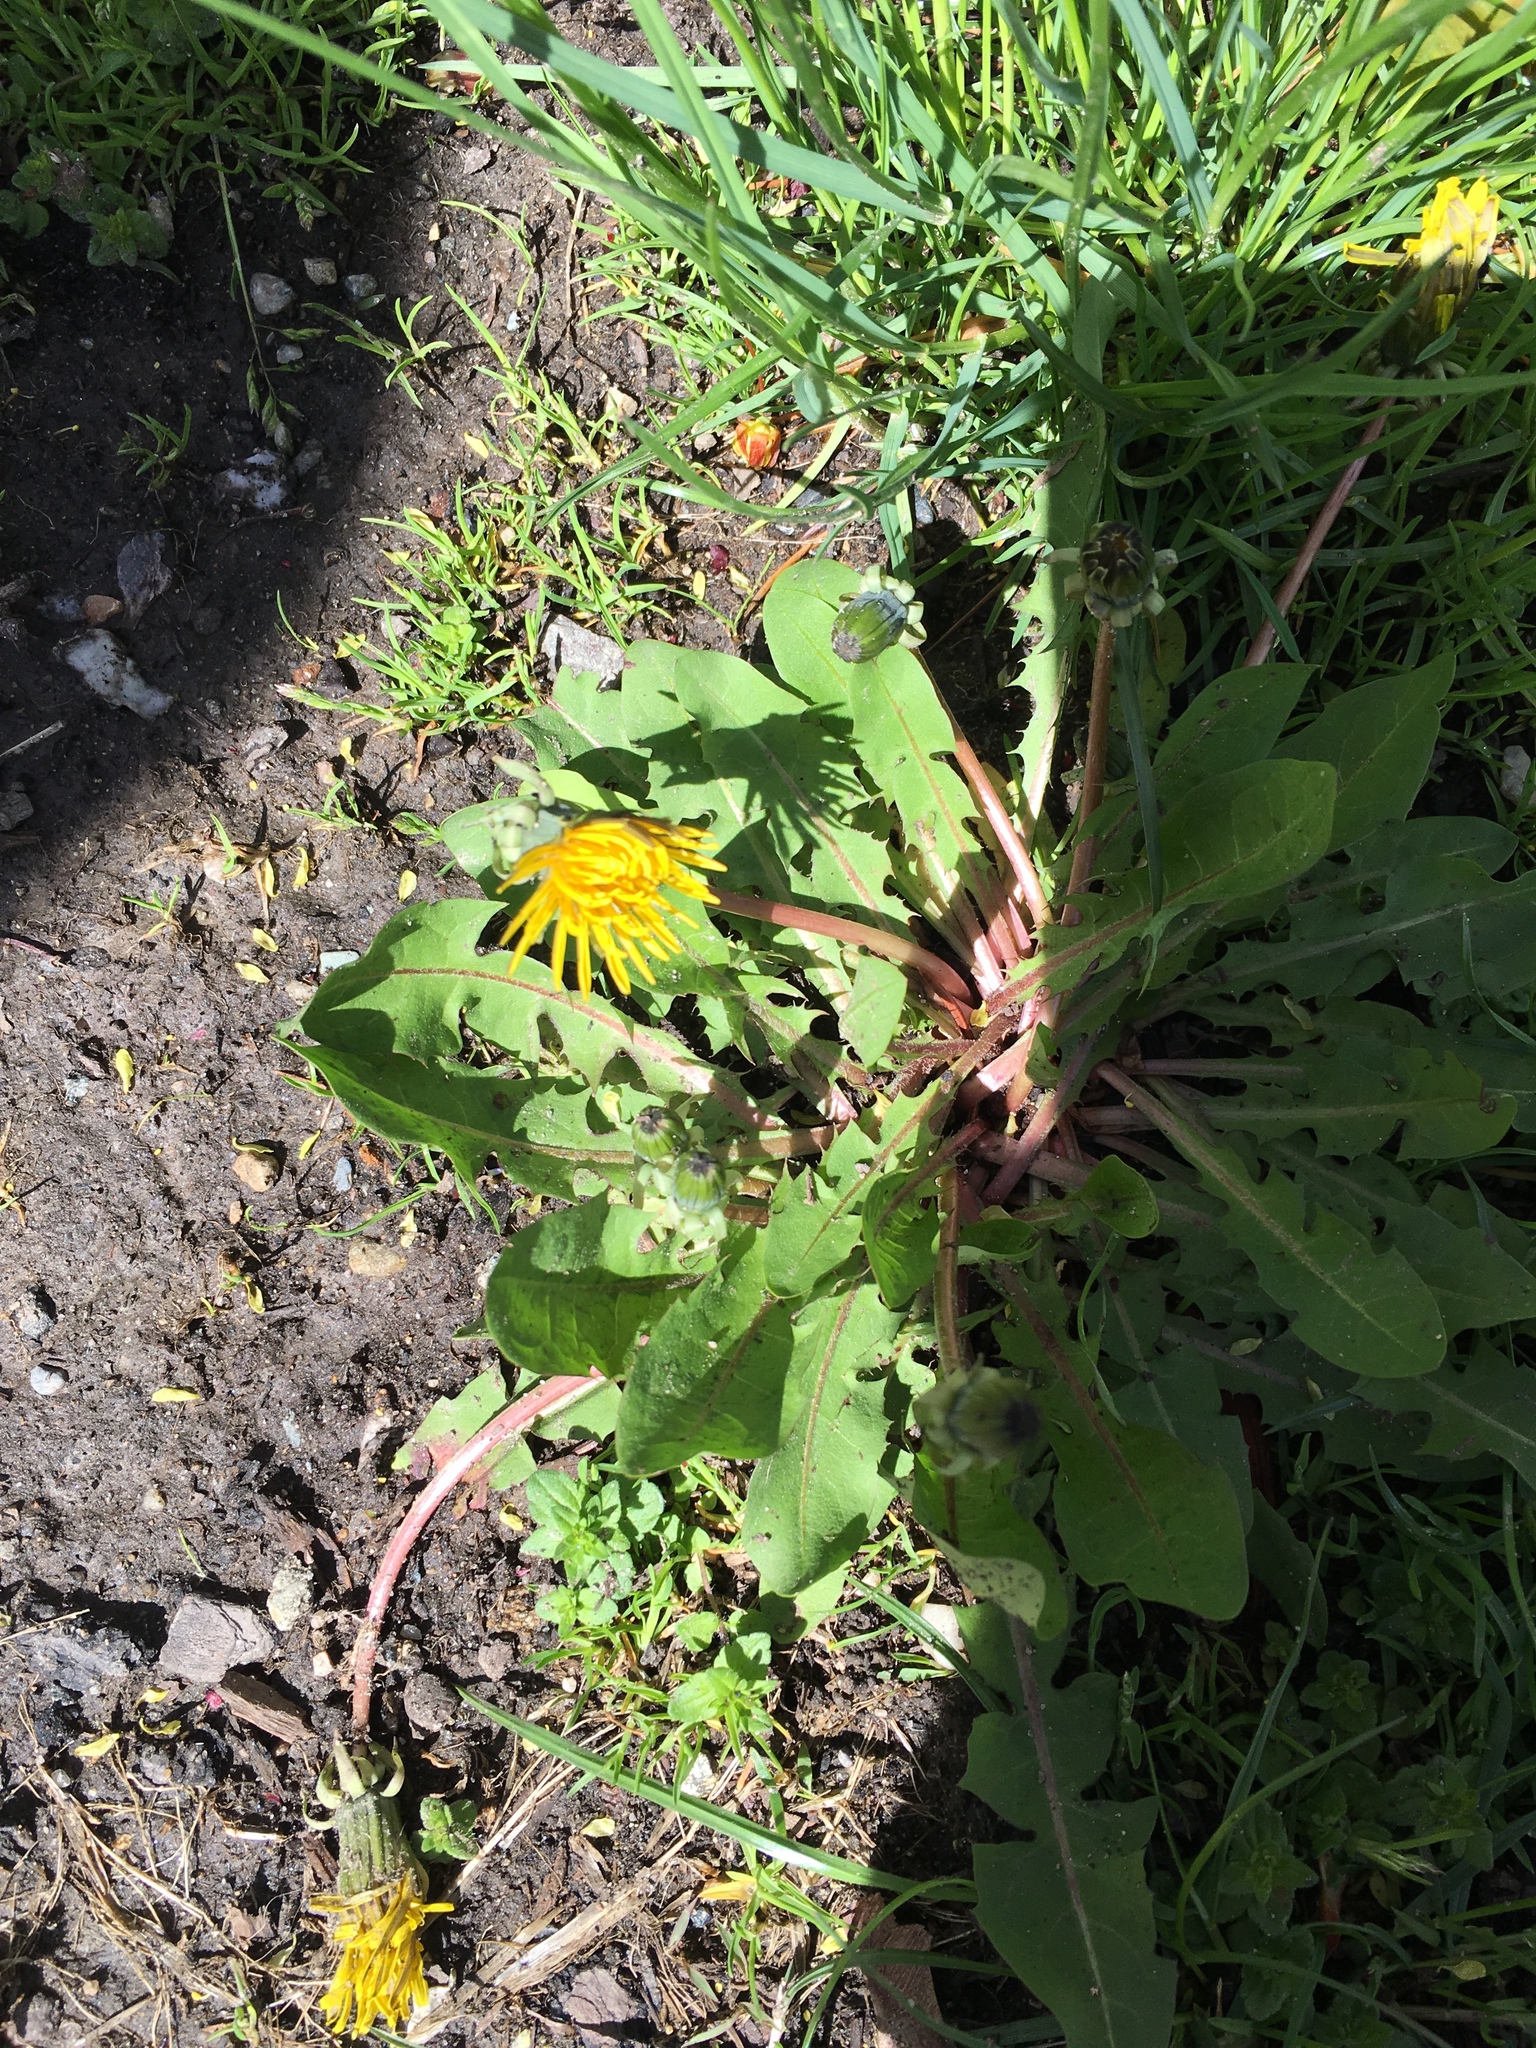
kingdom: Plantae
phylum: Tracheophyta
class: Magnoliopsida
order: Asterales
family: Asteraceae
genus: Taraxacum
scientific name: Taraxacum officinale
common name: Common dandelion
